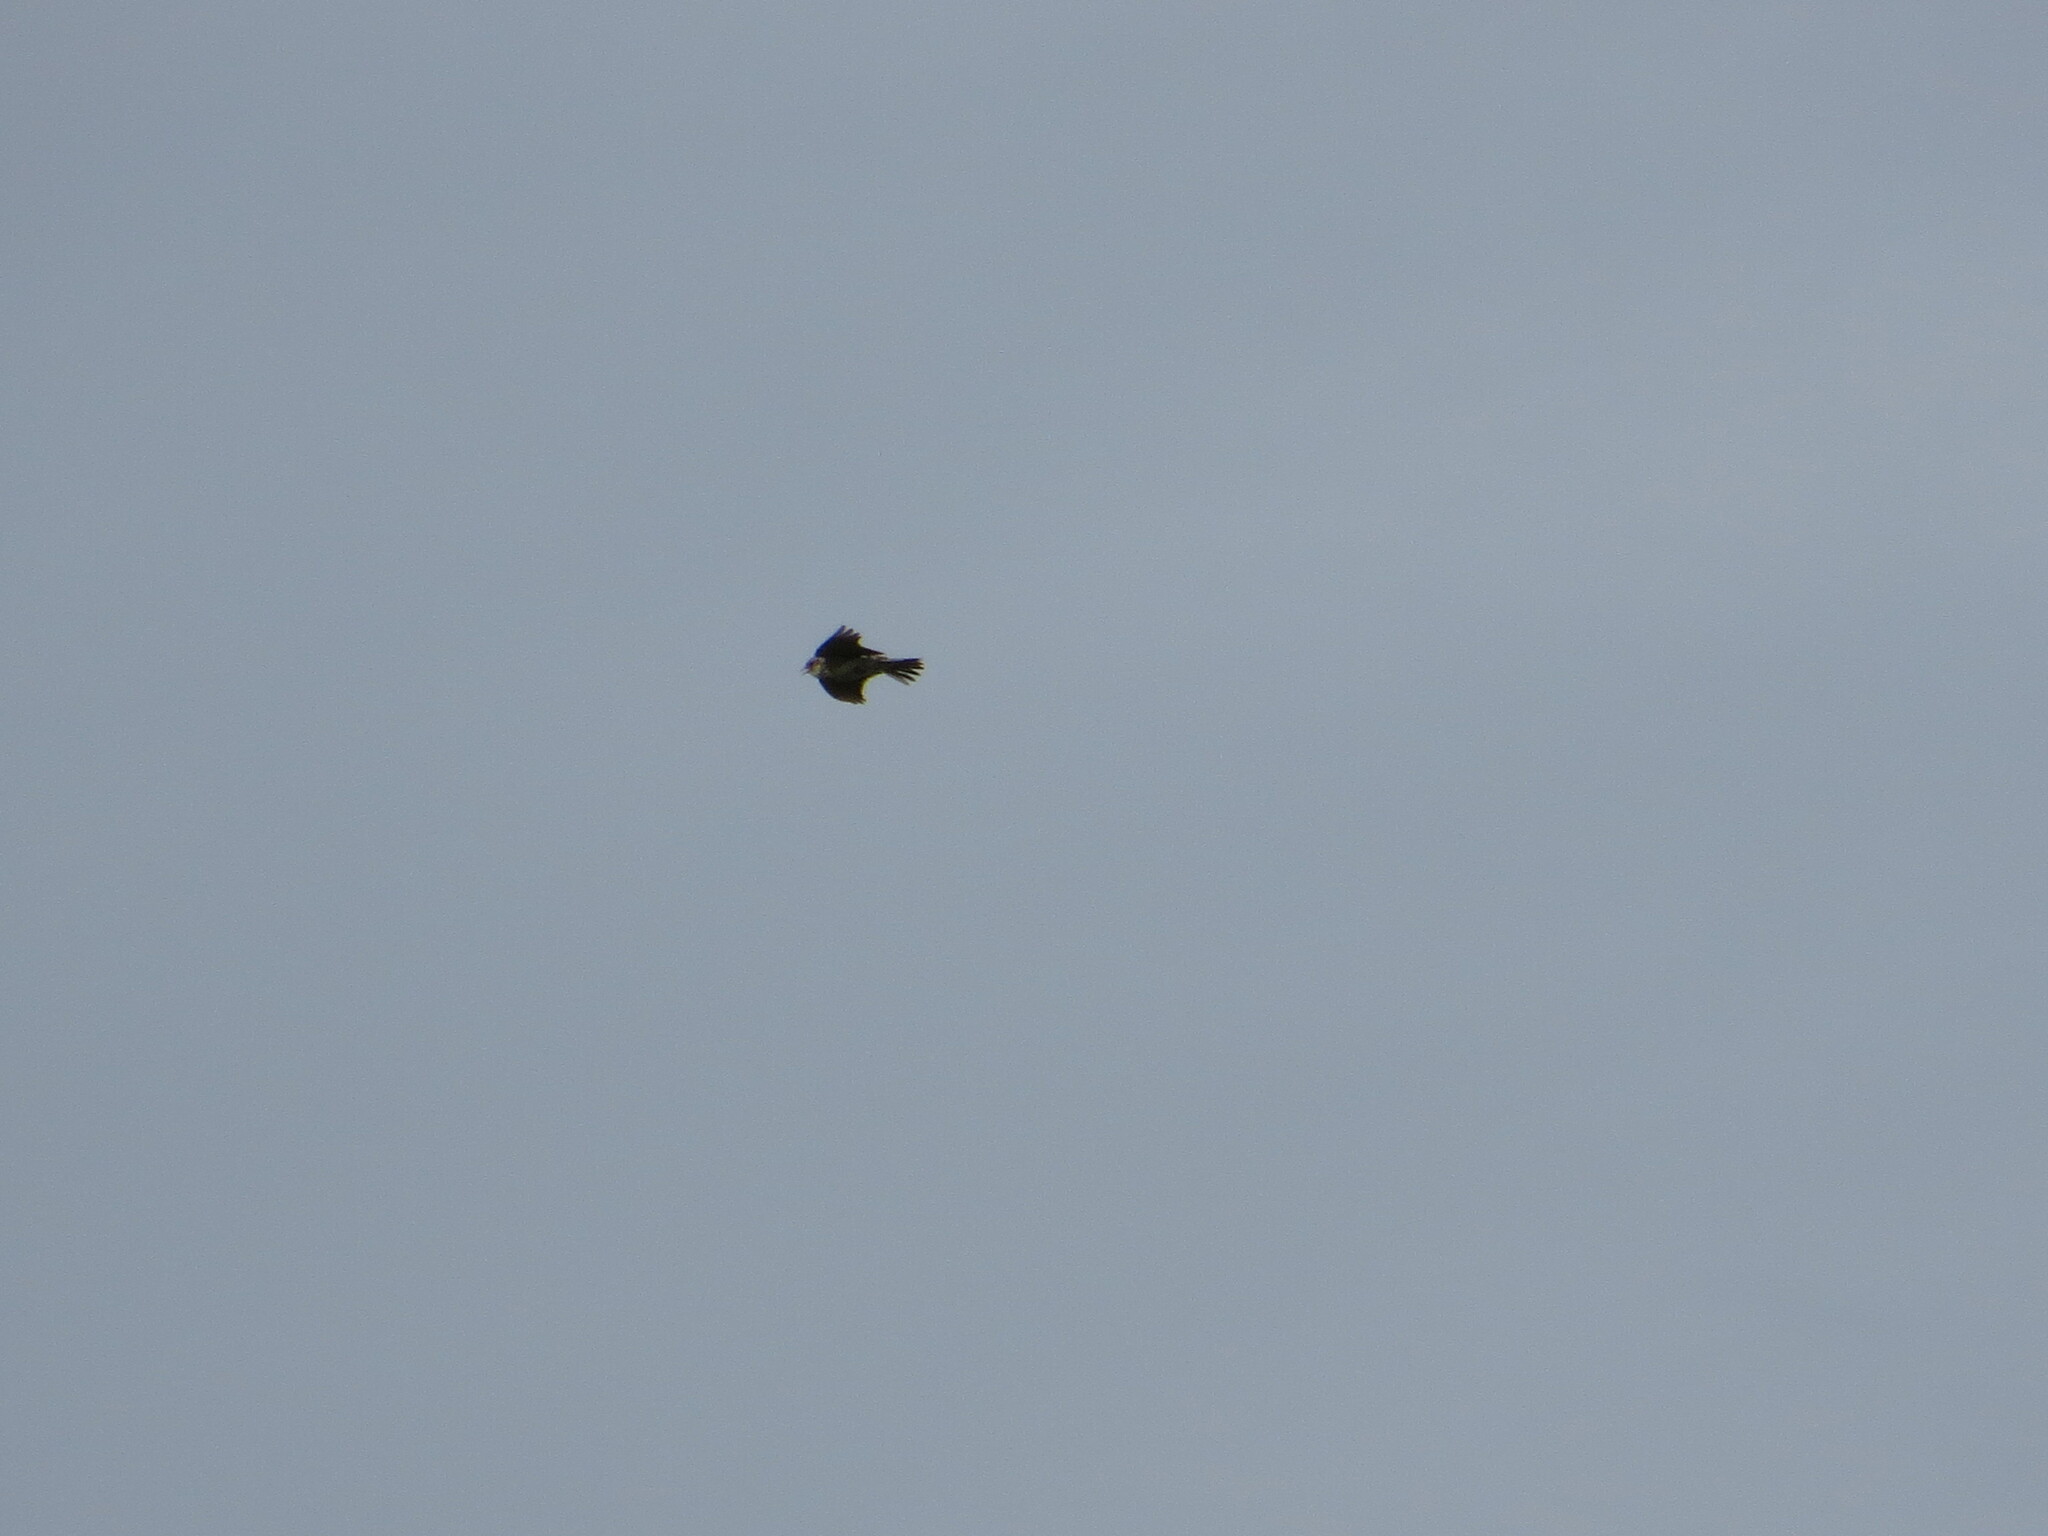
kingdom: Animalia
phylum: Chordata
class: Aves
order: Passeriformes
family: Alaudidae
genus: Alauda
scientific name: Alauda arvensis
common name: Eurasian skylark
